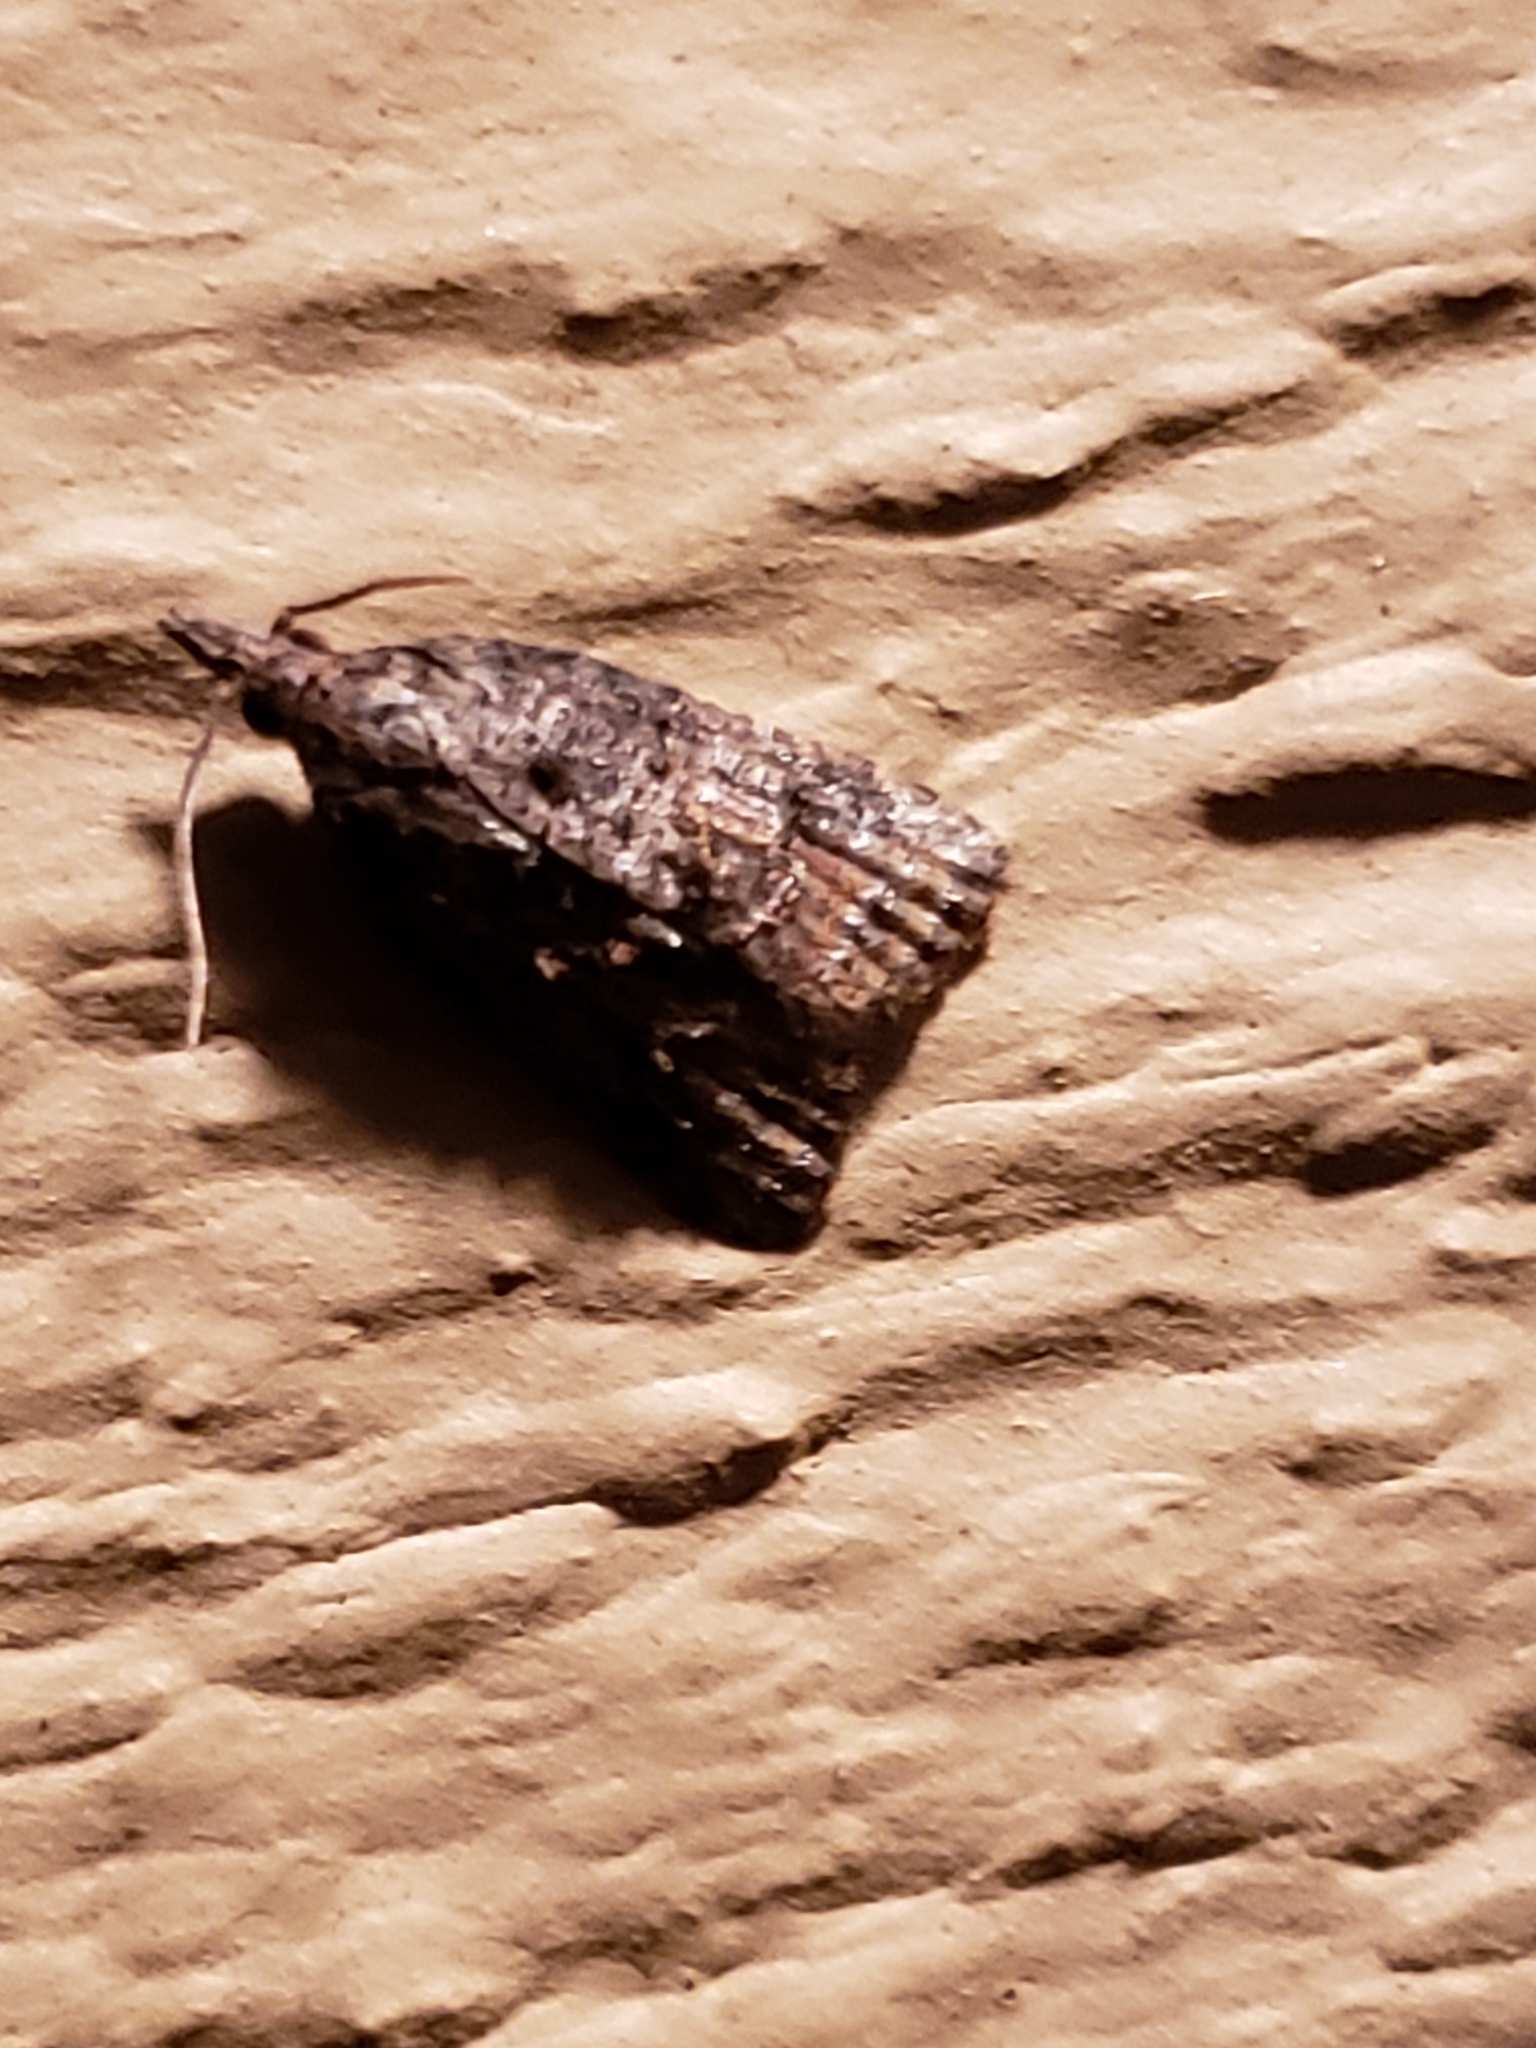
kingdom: Animalia
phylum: Arthropoda
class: Insecta
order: Lepidoptera
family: Tortricidae
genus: Platynota
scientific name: Platynota idaeusalis
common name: Tufted apple bud moth
